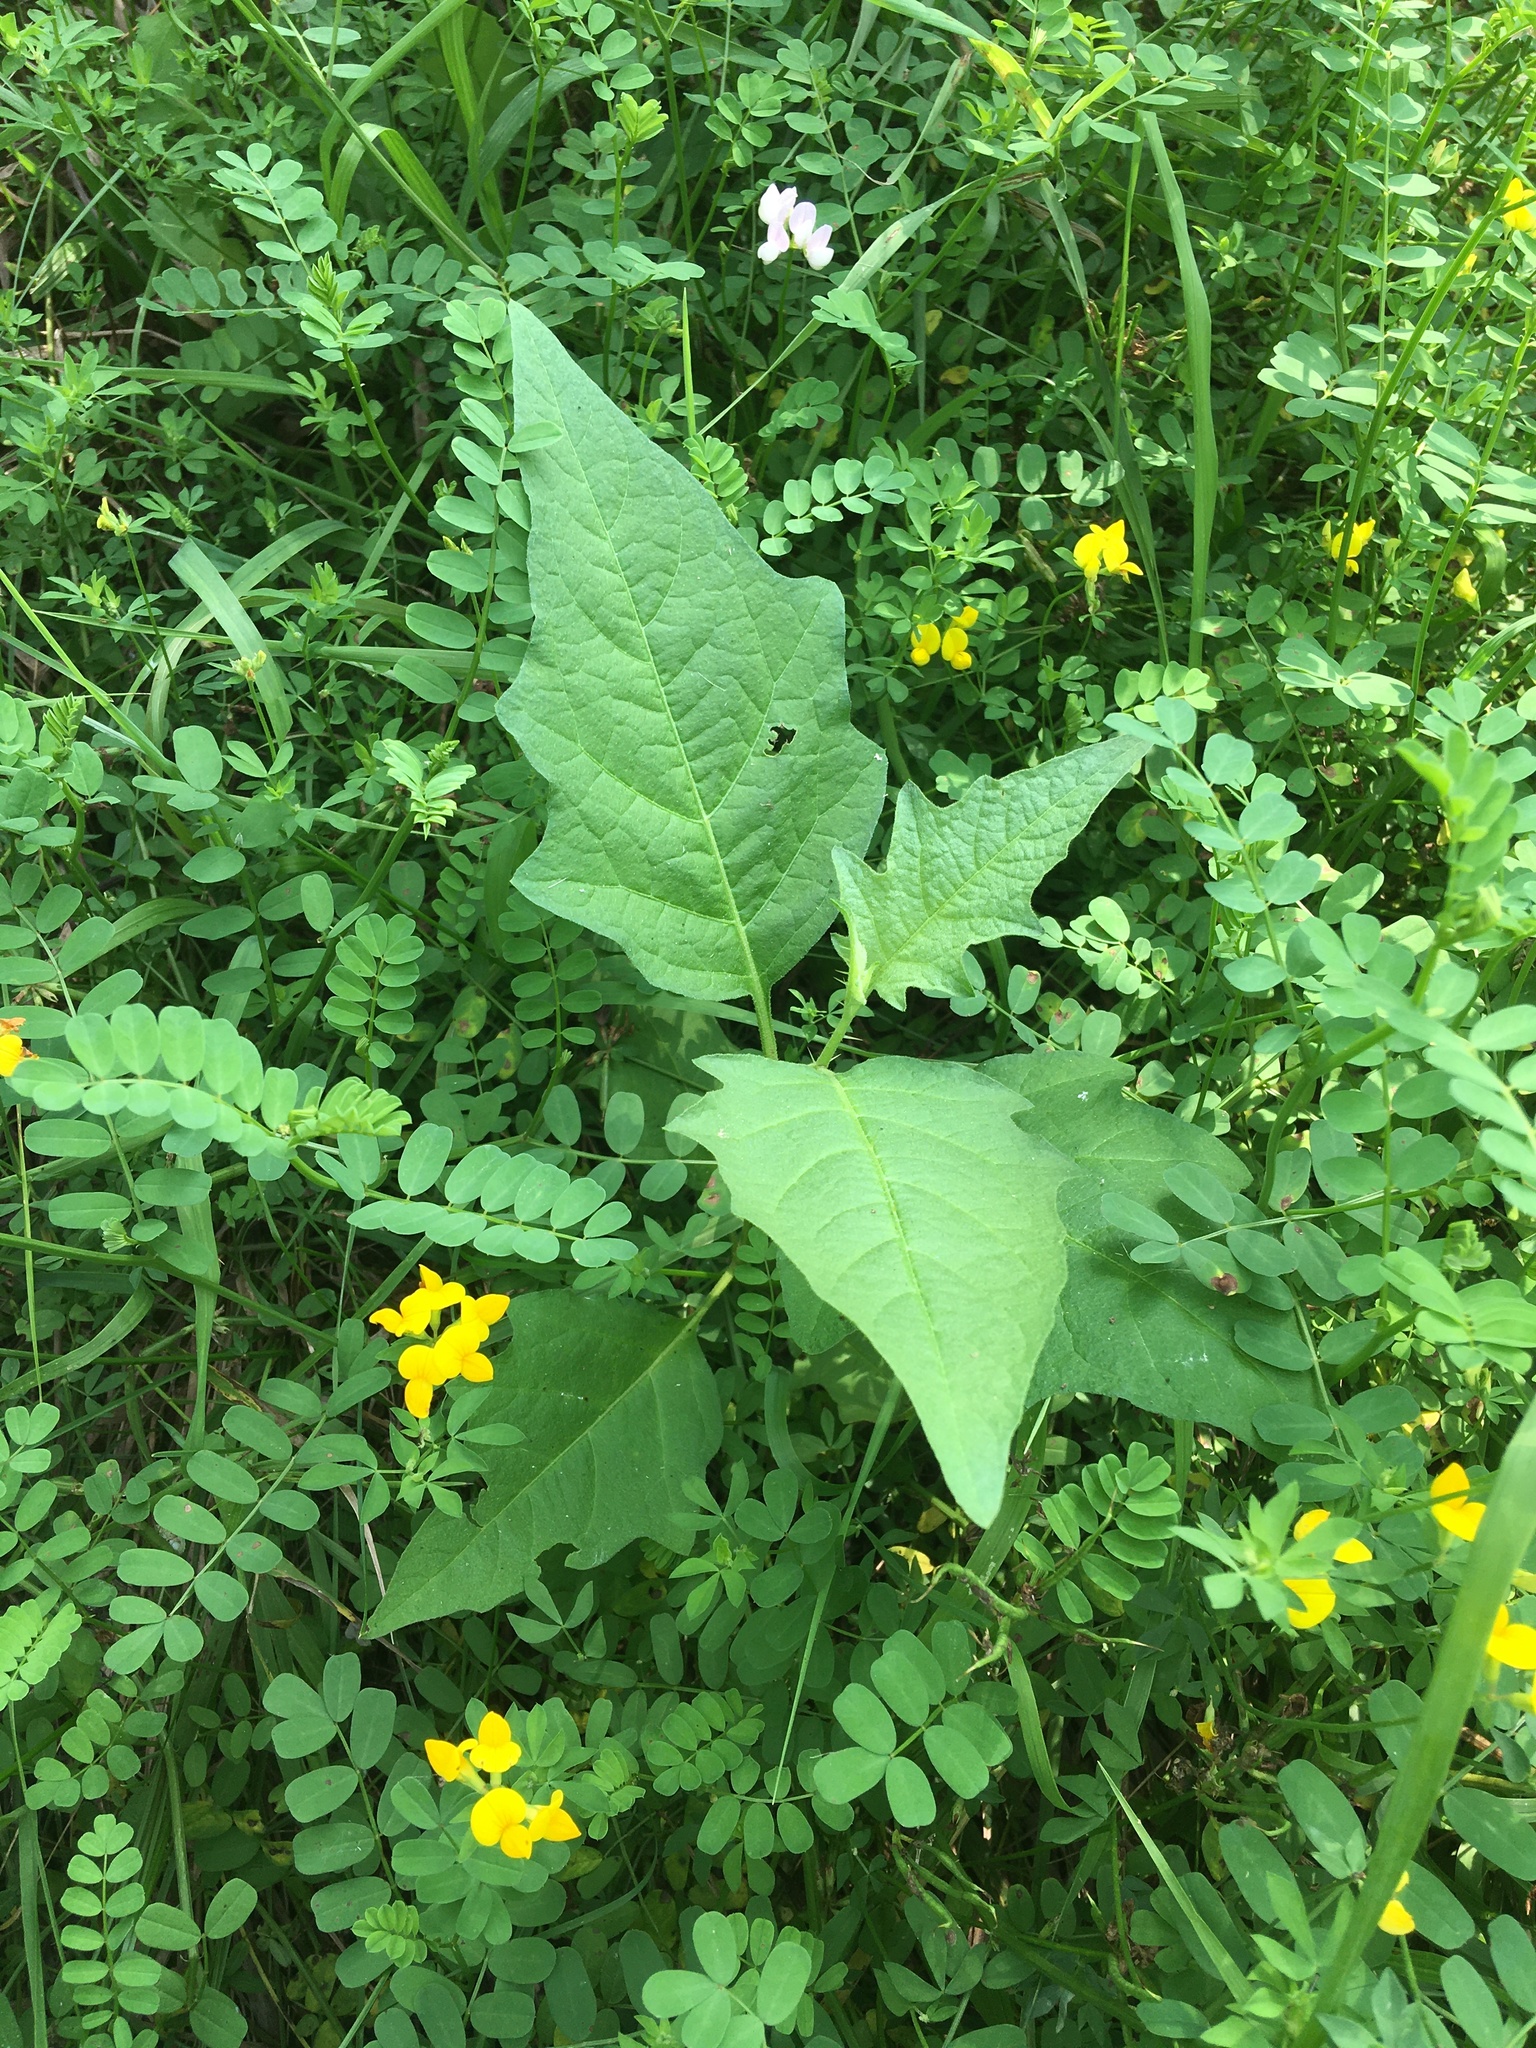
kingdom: Plantae
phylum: Tracheophyta
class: Magnoliopsida
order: Solanales
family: Solanaceae
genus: Solanum
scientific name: Solanum carolinense
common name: Horse-nettle
